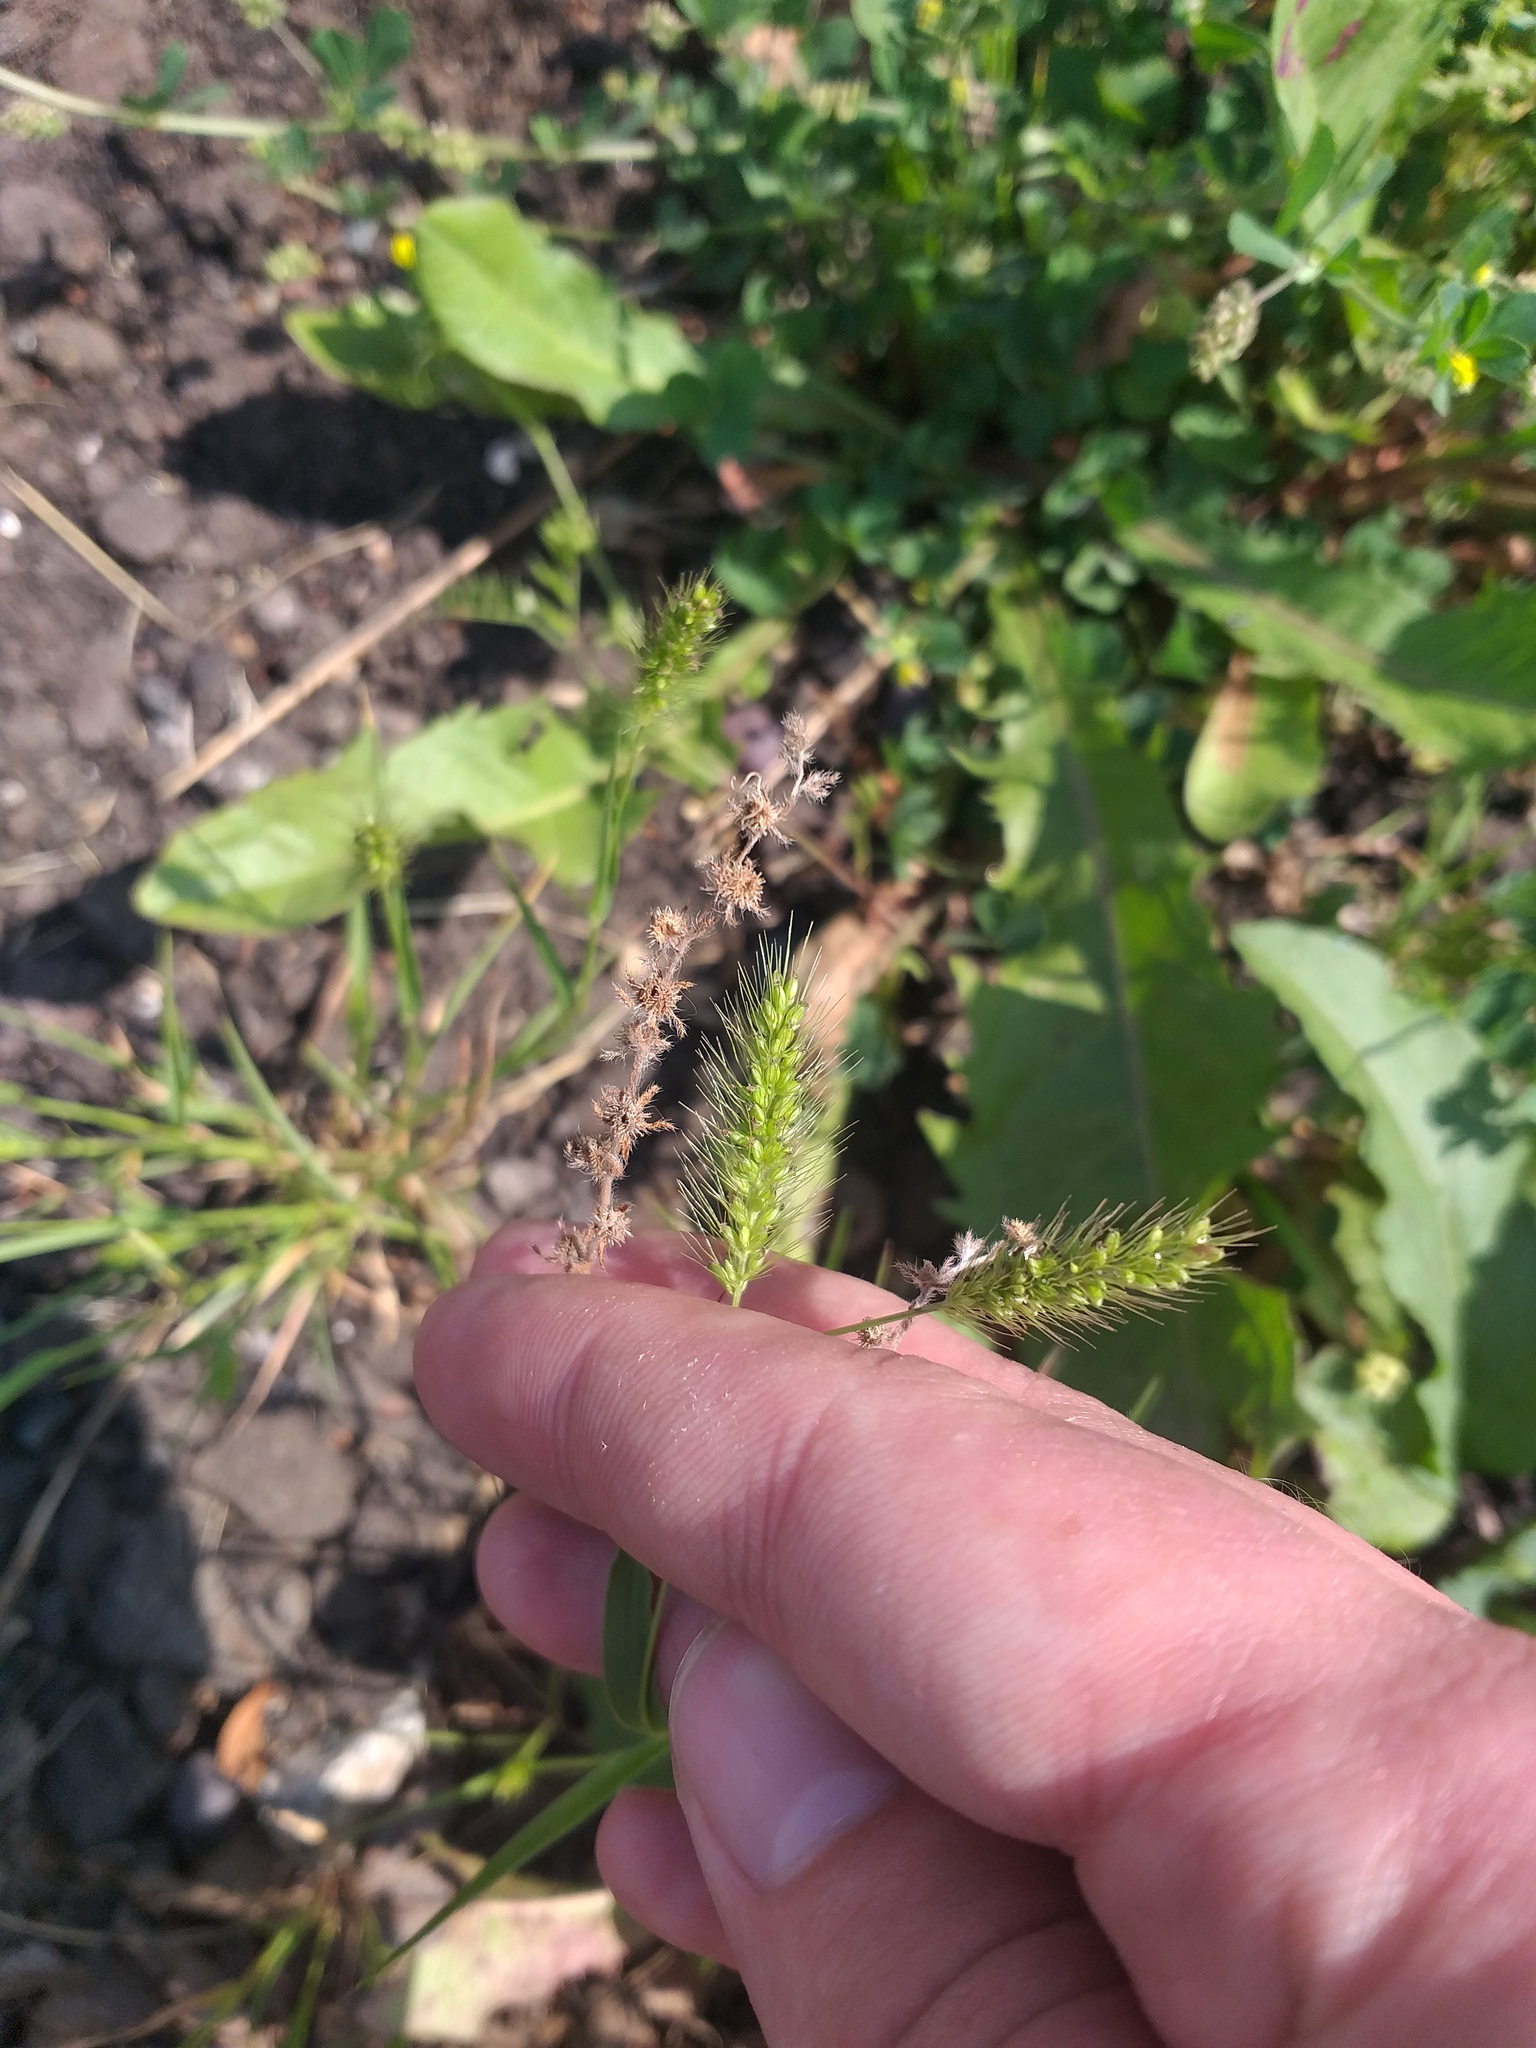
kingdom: Plantae
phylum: Tracheophyta
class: Liliopsida
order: Poales
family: Poaceae
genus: Setaria
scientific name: Setaria viridis
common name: Green bristlegrass
